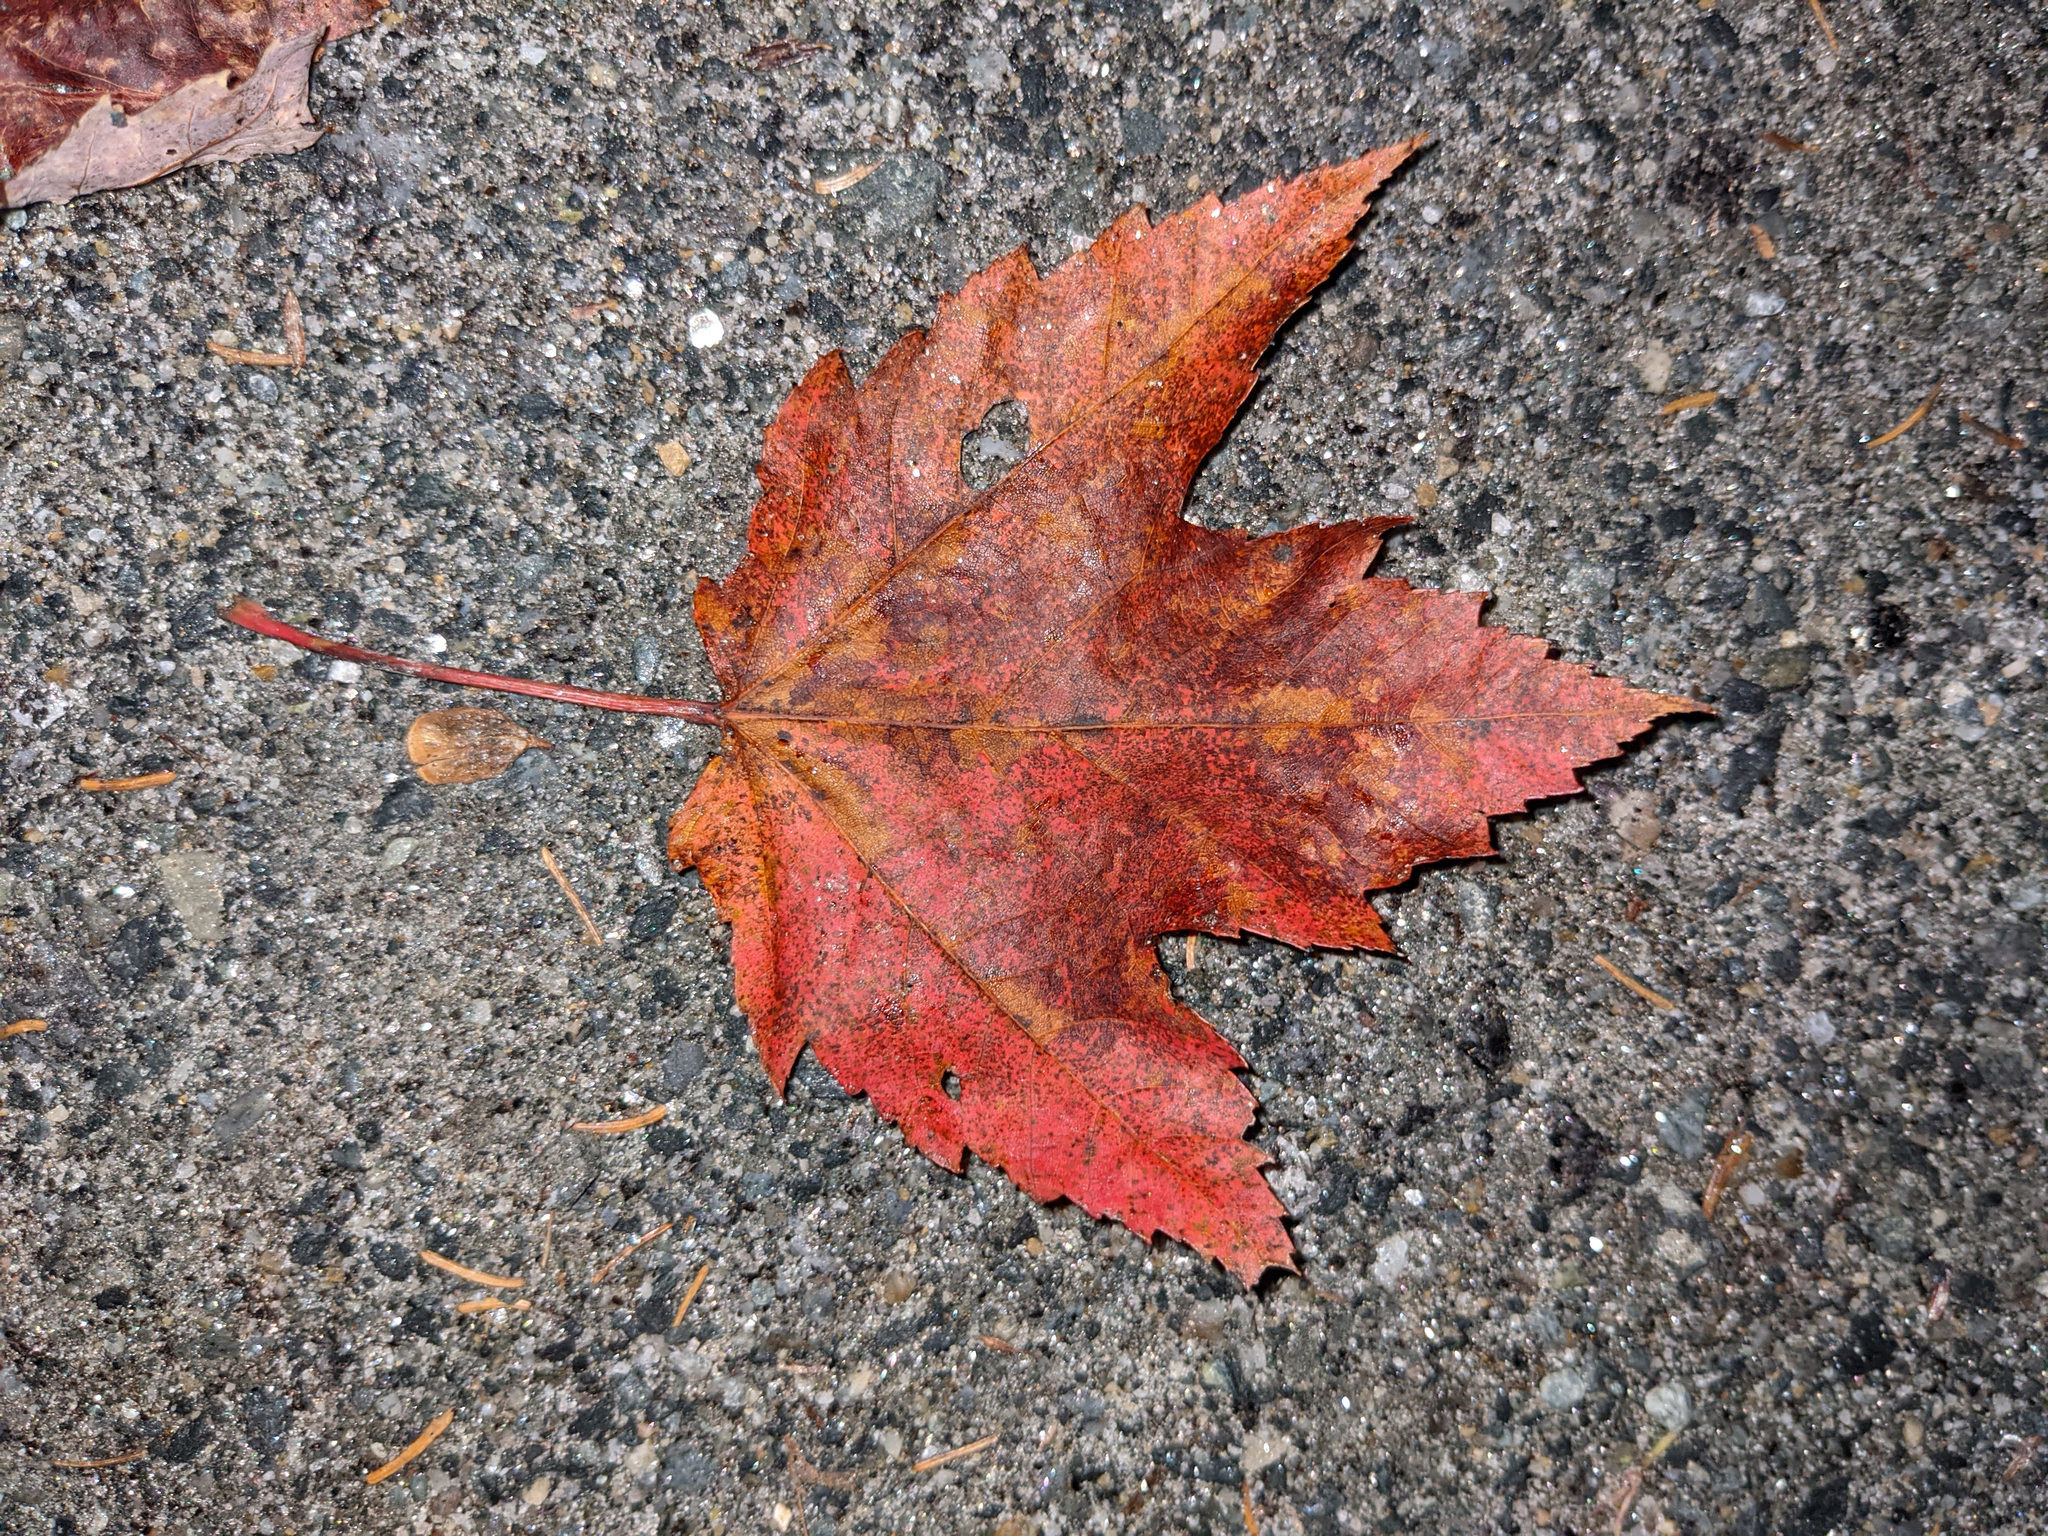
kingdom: Plantae
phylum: Tracheophyta
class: Magnoliopsida
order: Sapindales
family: Sapindaceae
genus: Acer
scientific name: Acer rubrum
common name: Red maple
